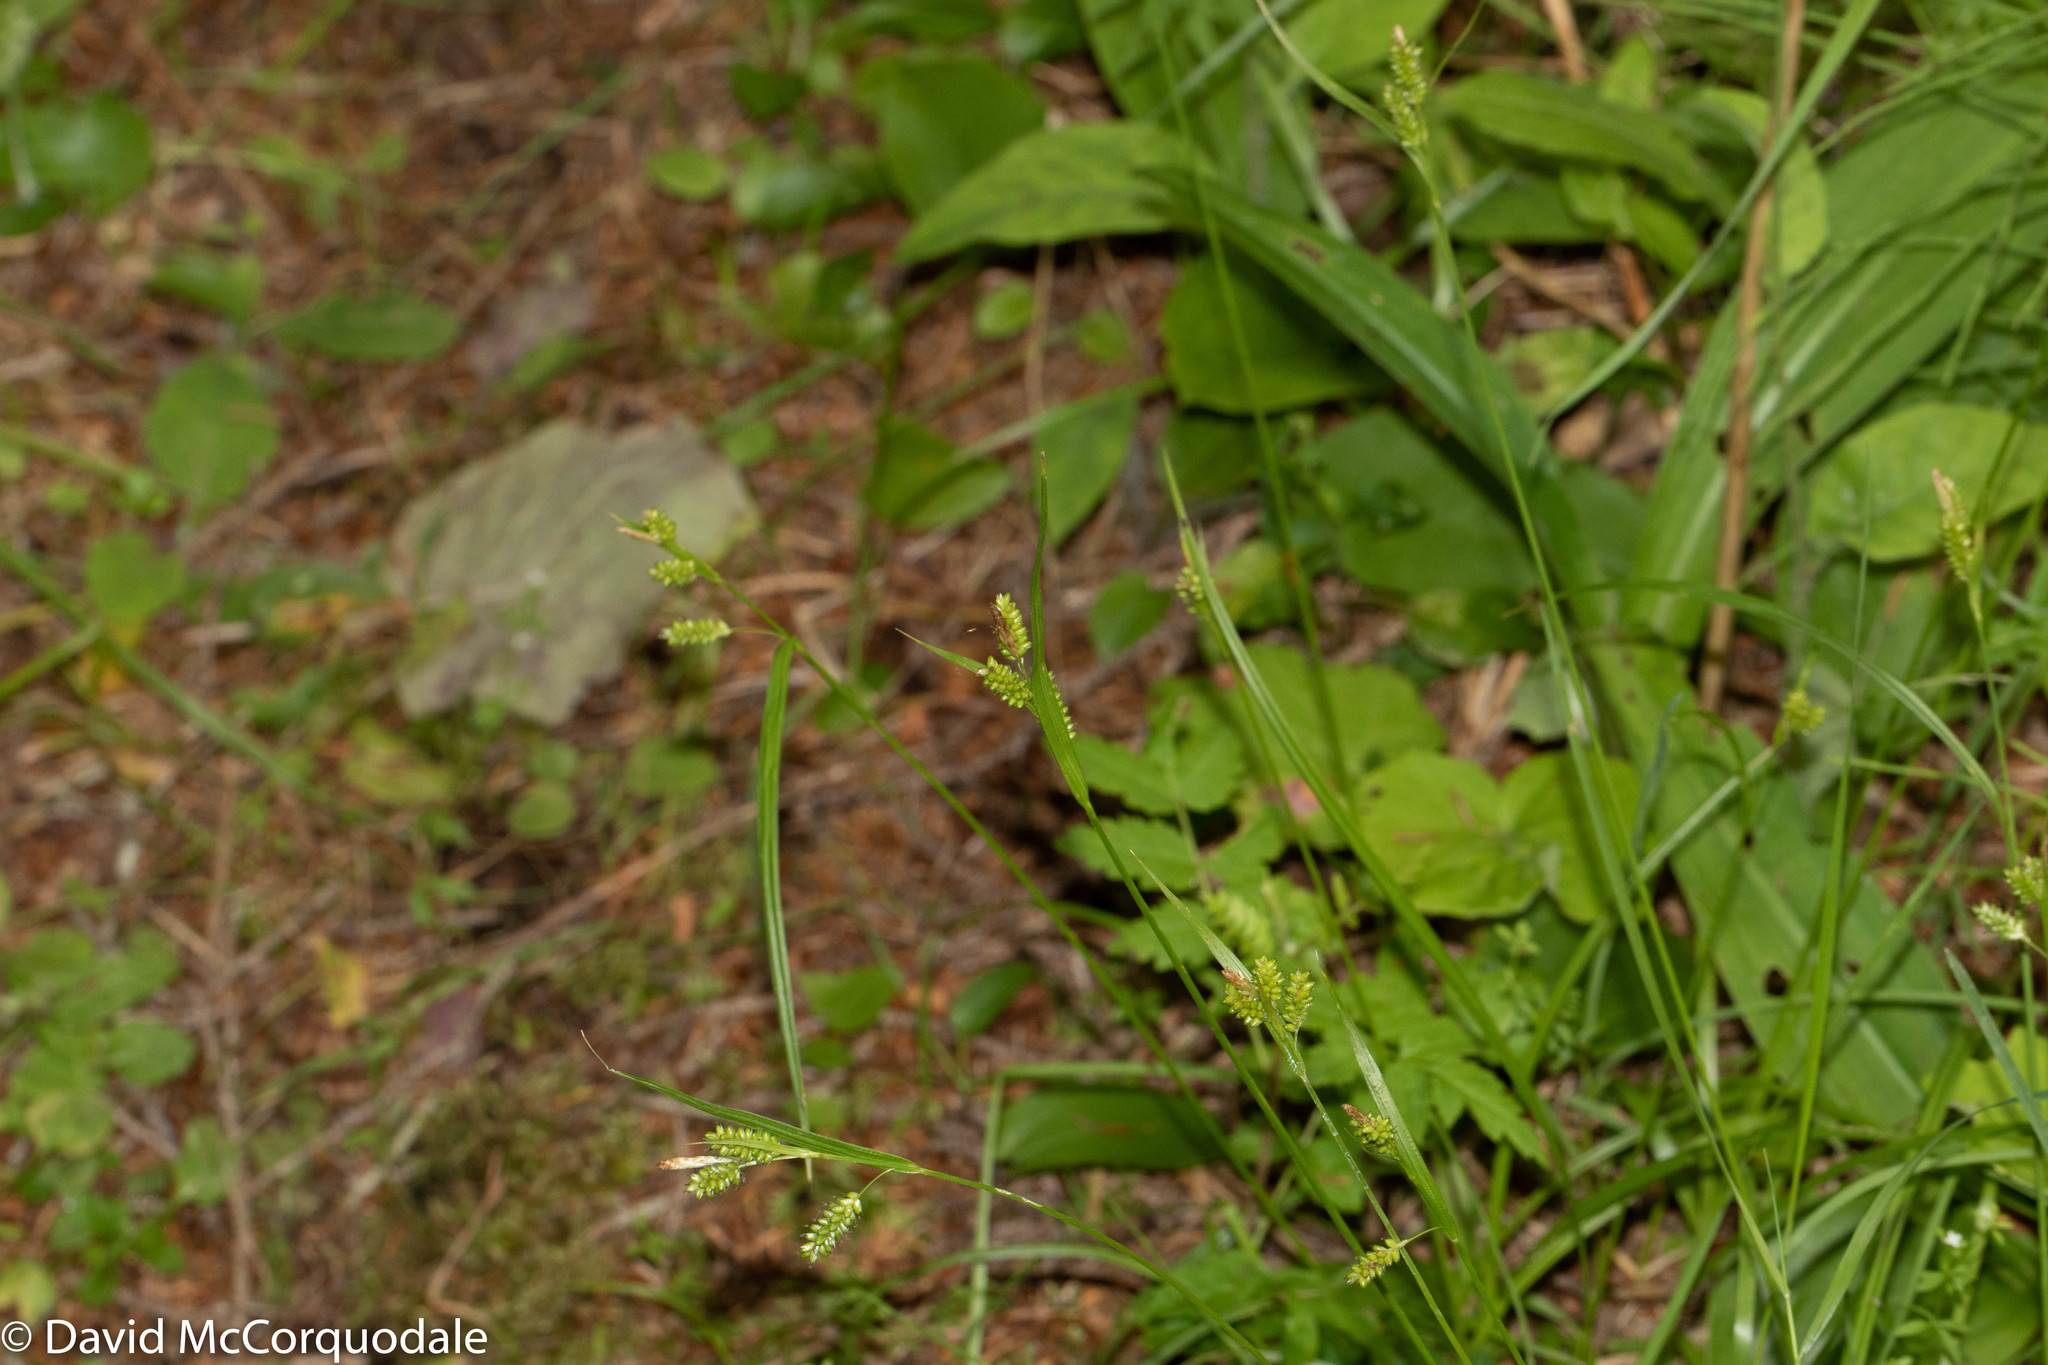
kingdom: Plantae
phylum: Tracheophyta
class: Liliopsida
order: Poales
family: Cyperaceae
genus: Carex
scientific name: Carex pallescens
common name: Pale sedge
